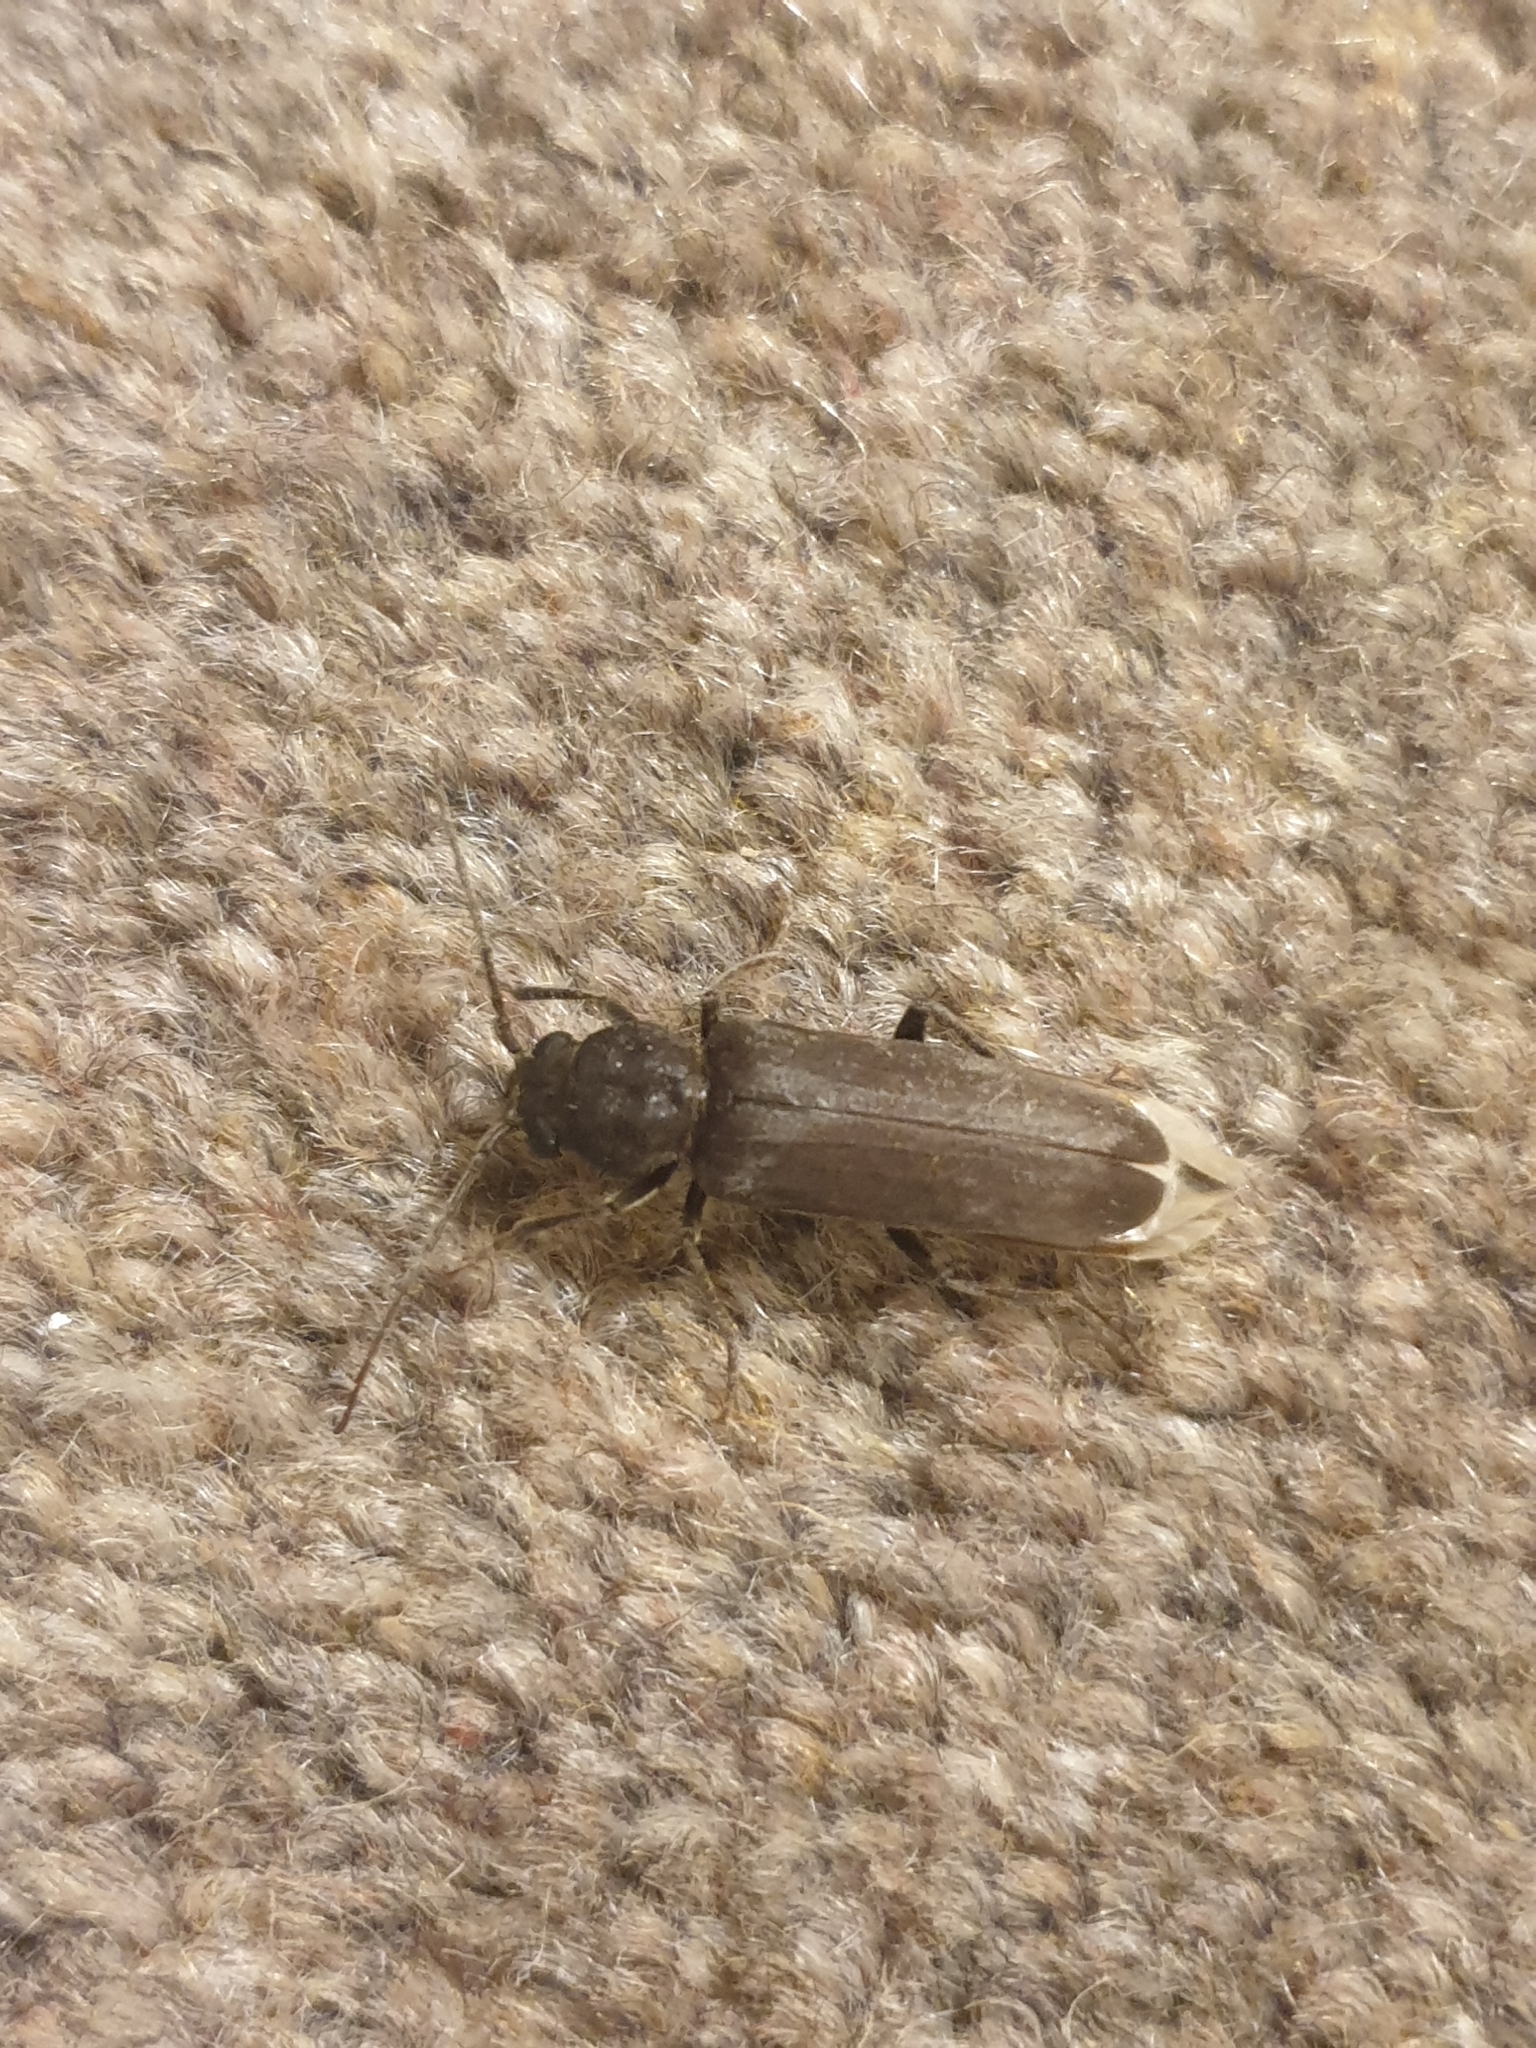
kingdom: Animalia
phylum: Arthropoda
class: Insecta
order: Coleoptera
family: Cerambycidae
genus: Arhopalus
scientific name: Arhopalus ferus
